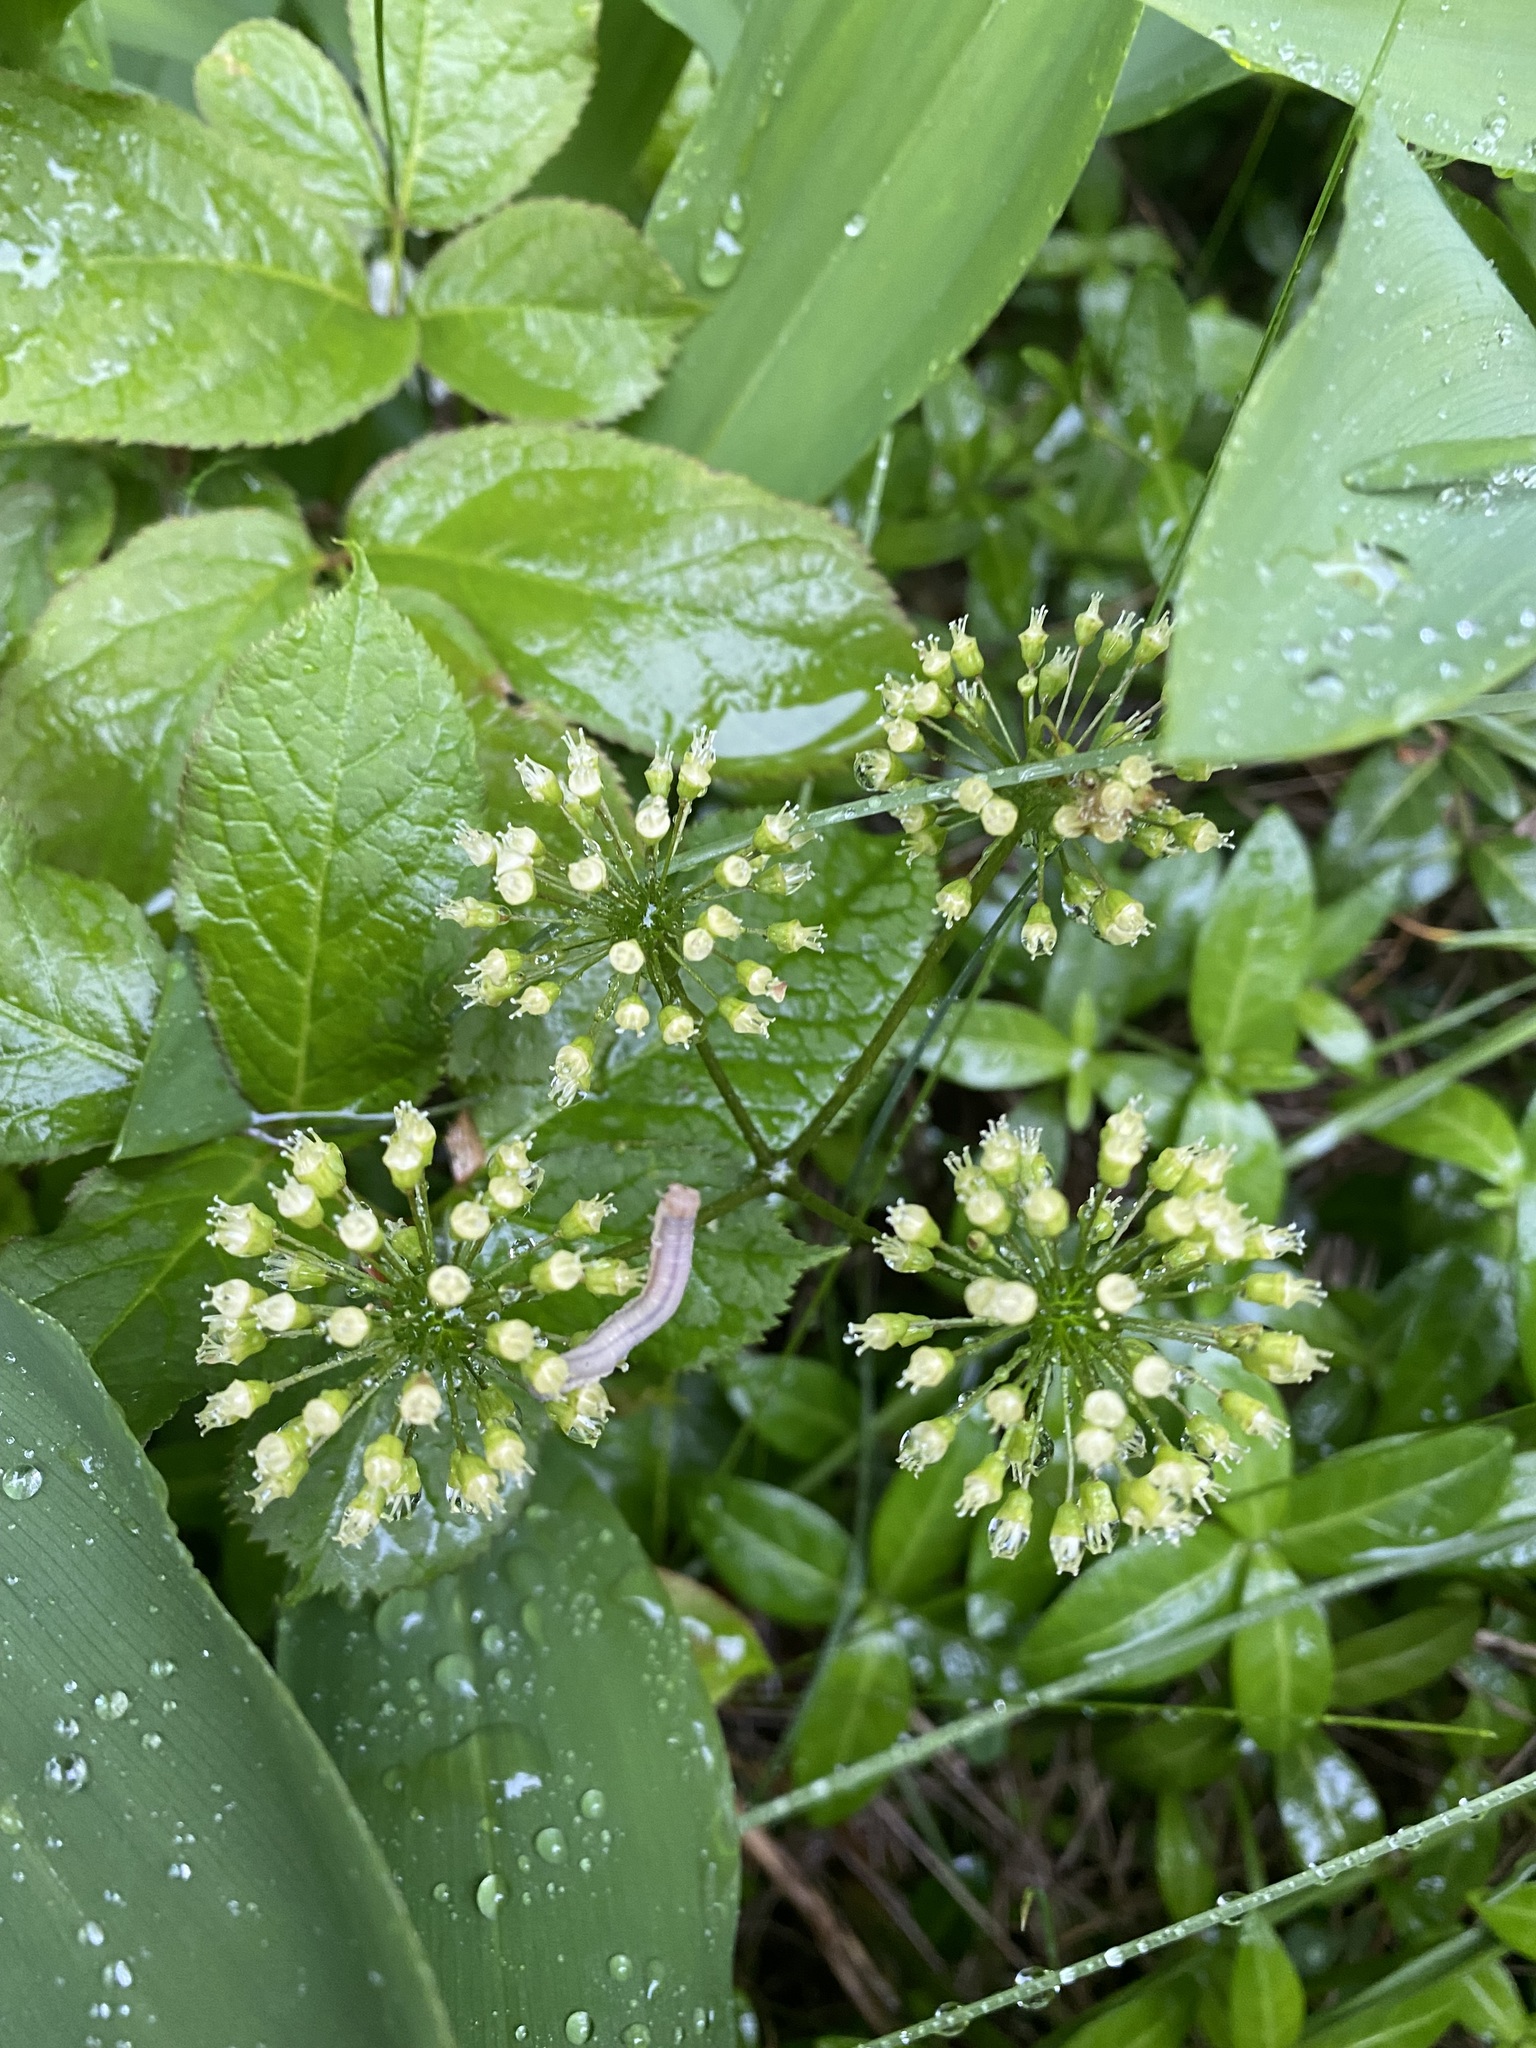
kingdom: Plantae
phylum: Tracheophyta
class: Magnoliopsida
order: Apiales
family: Araliaceae
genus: Aralia
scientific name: Aralia nudicaulis
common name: Wild sarsaparilla
